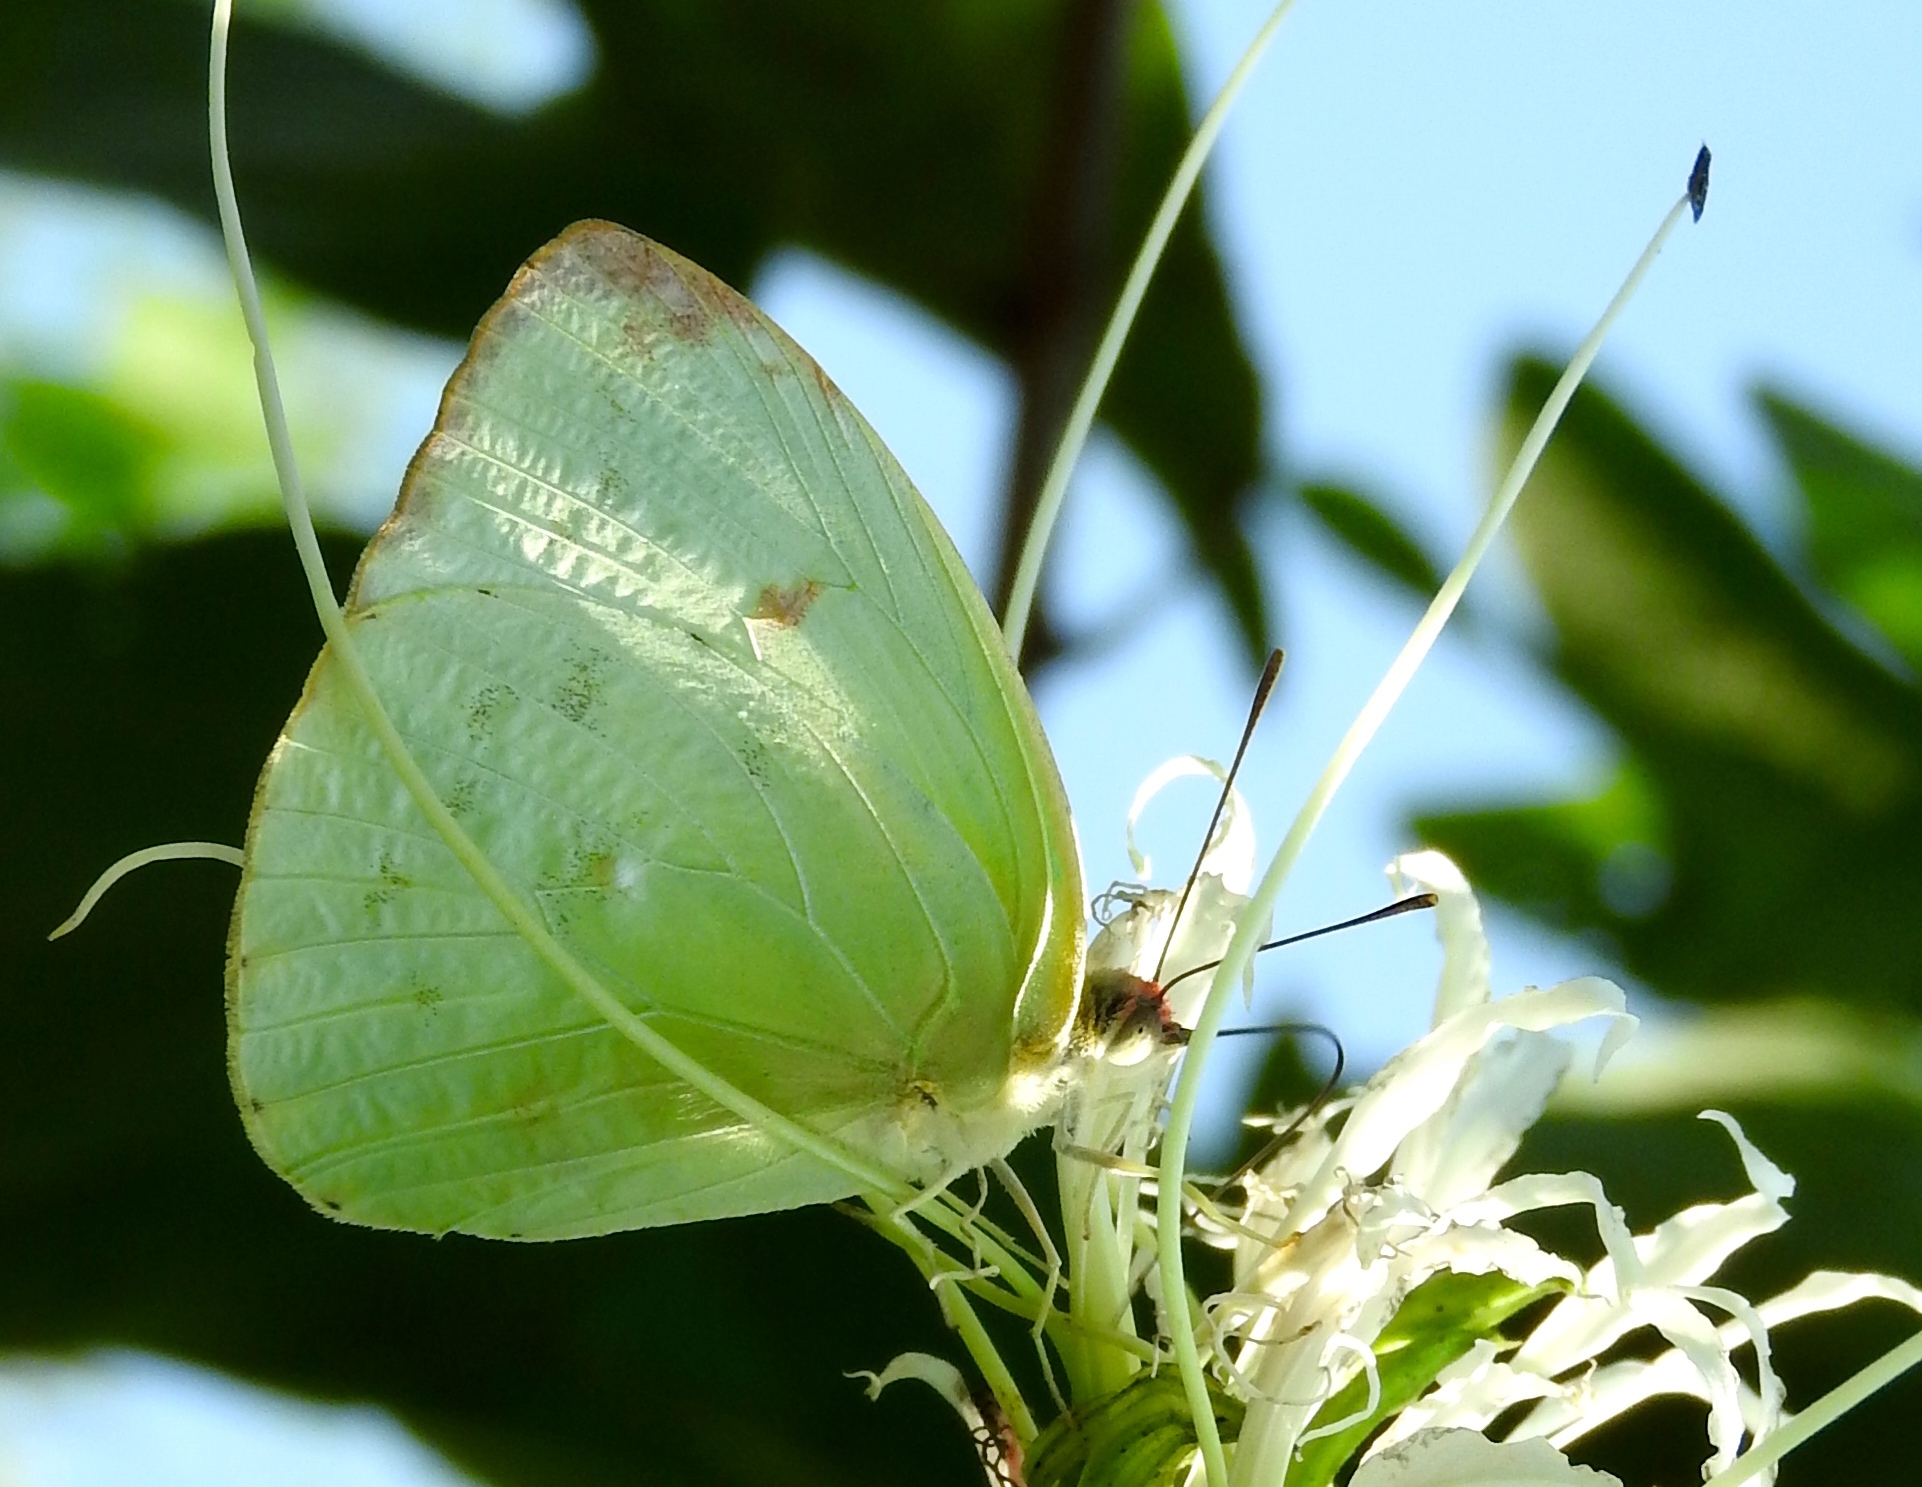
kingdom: Animalia
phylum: Arthropoda
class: Insecta
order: Lepidoptera
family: Pieridae
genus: Aphrissa
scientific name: Aphrissa statira
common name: Statira sulphur
